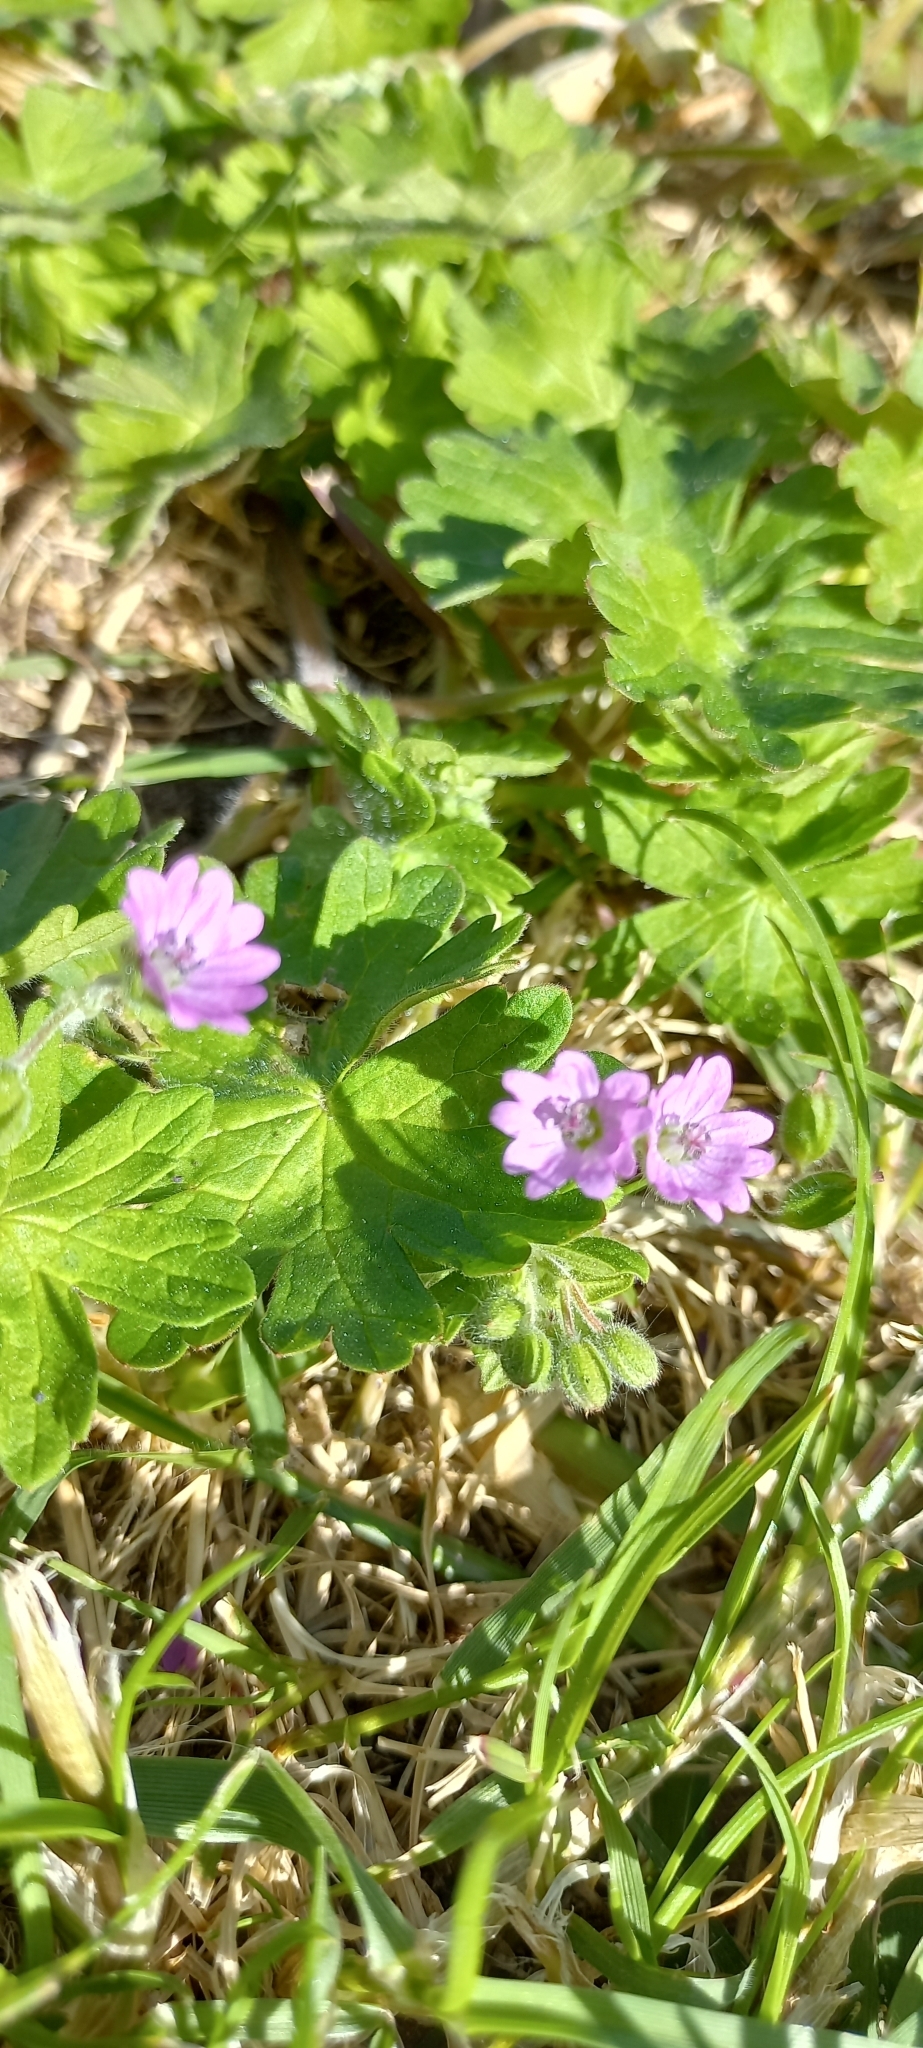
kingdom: Plantae
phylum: Tracheophyta
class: Magnoliopsida
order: Geraniales
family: Geraniaceae
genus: Geranium
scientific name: Geranium molle
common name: Dove's-foot crane's-bill
